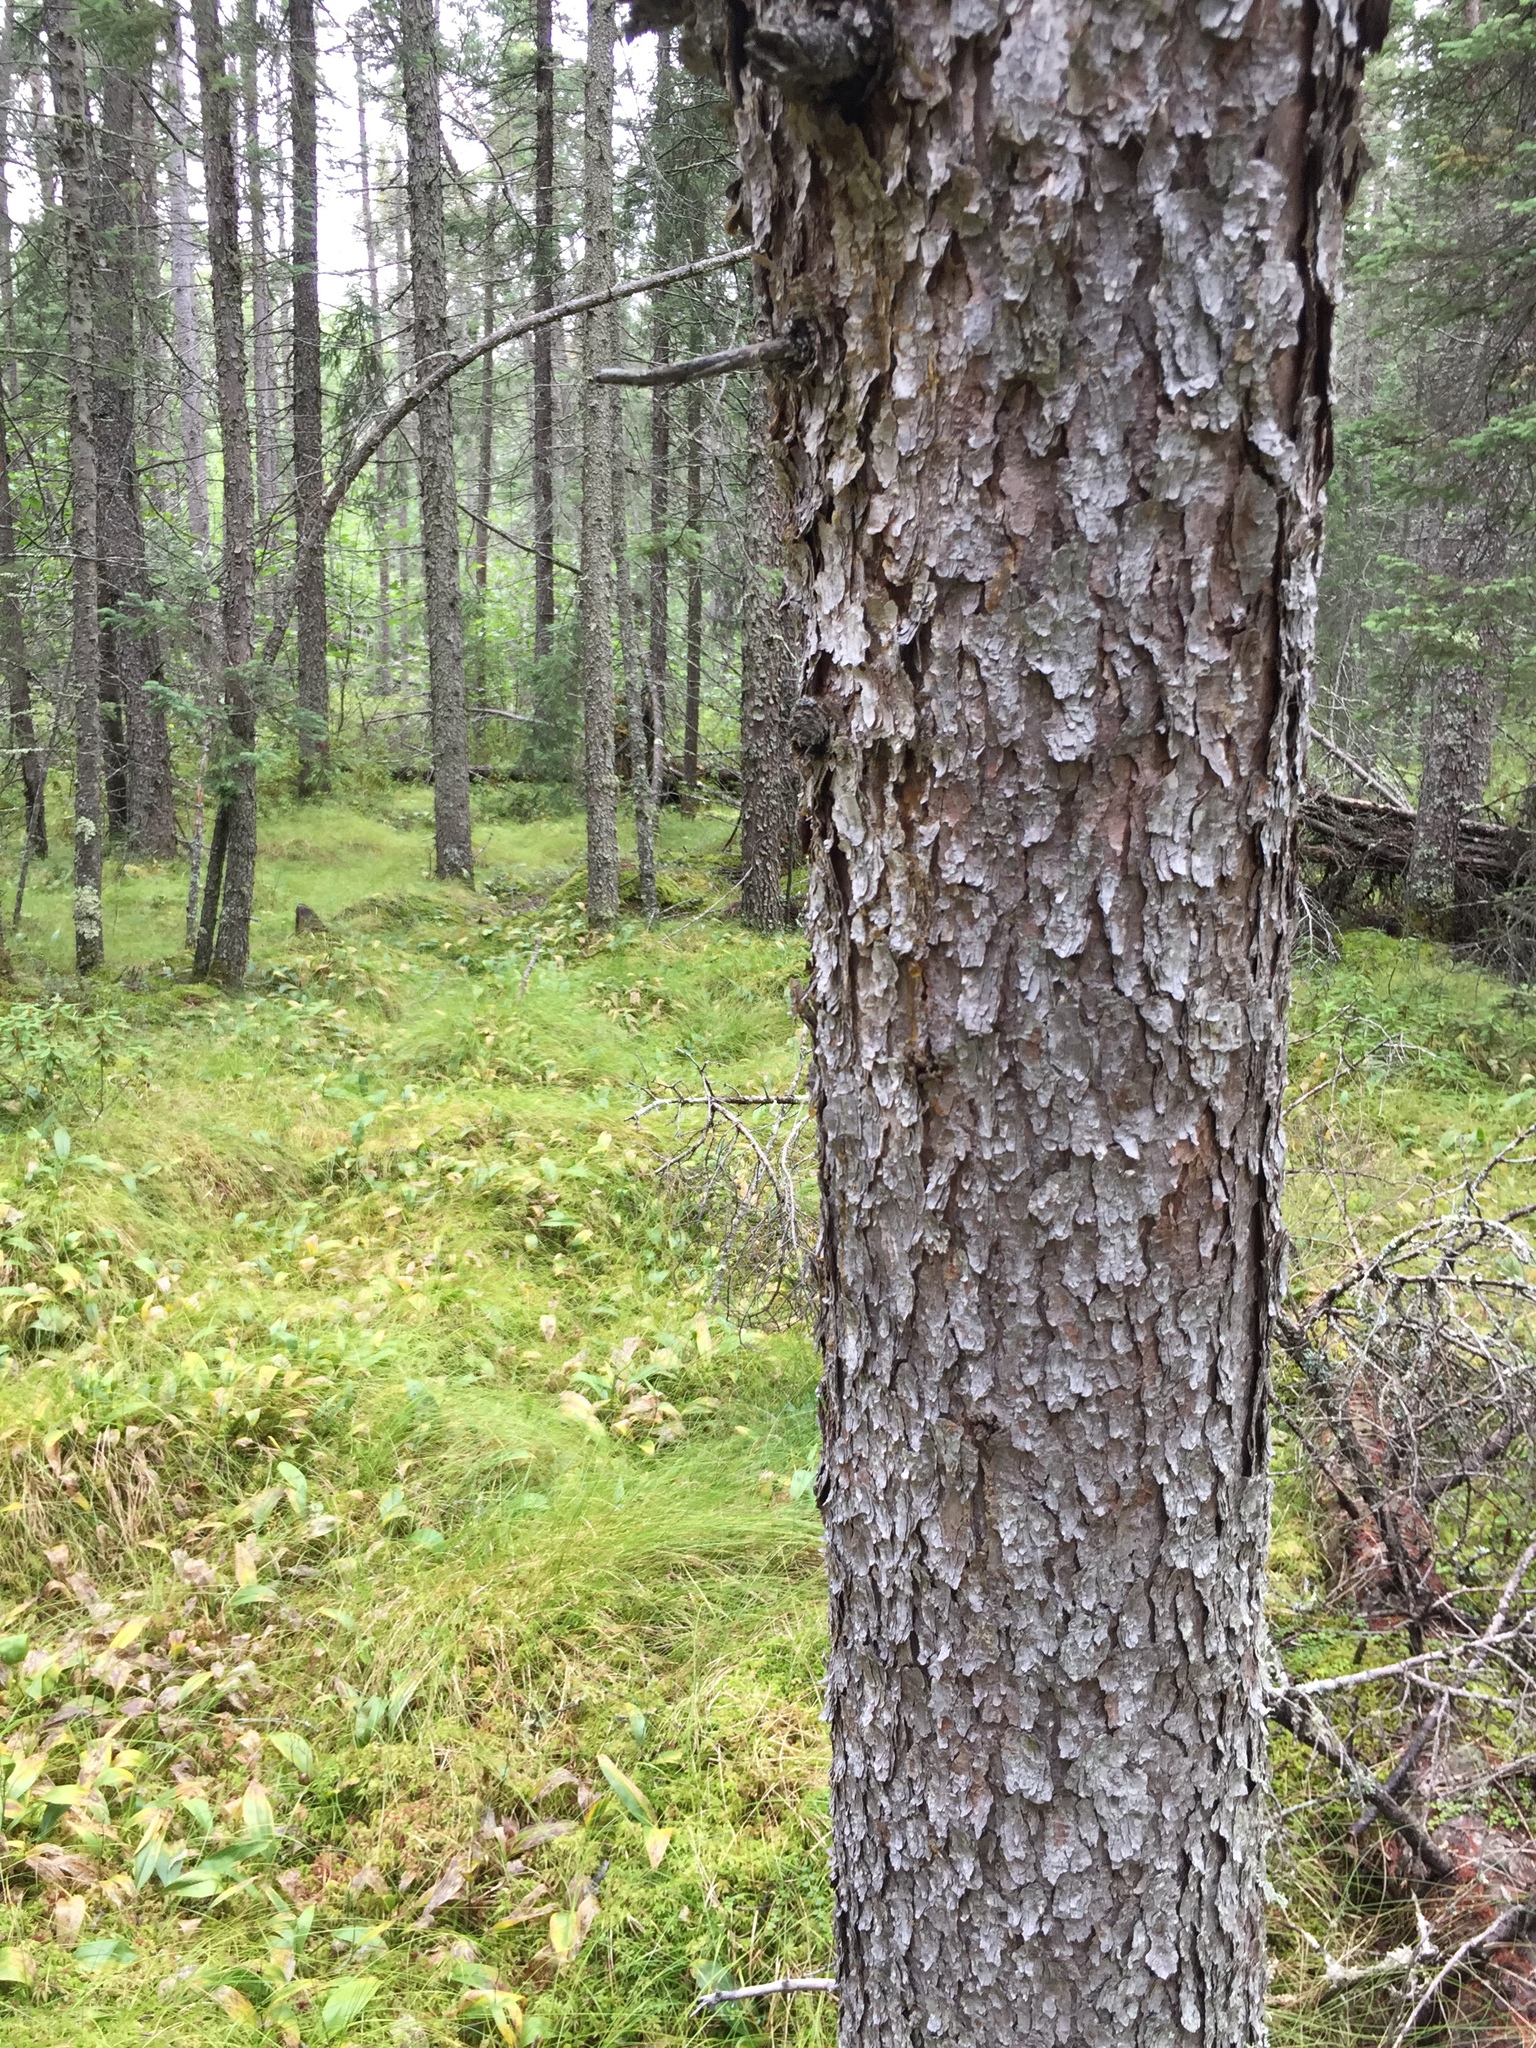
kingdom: Plantae
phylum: Tracheophyta
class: Pinopsida
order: Pinales
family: Pinaceae
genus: Picea
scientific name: Picea mariana
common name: Black spruce
